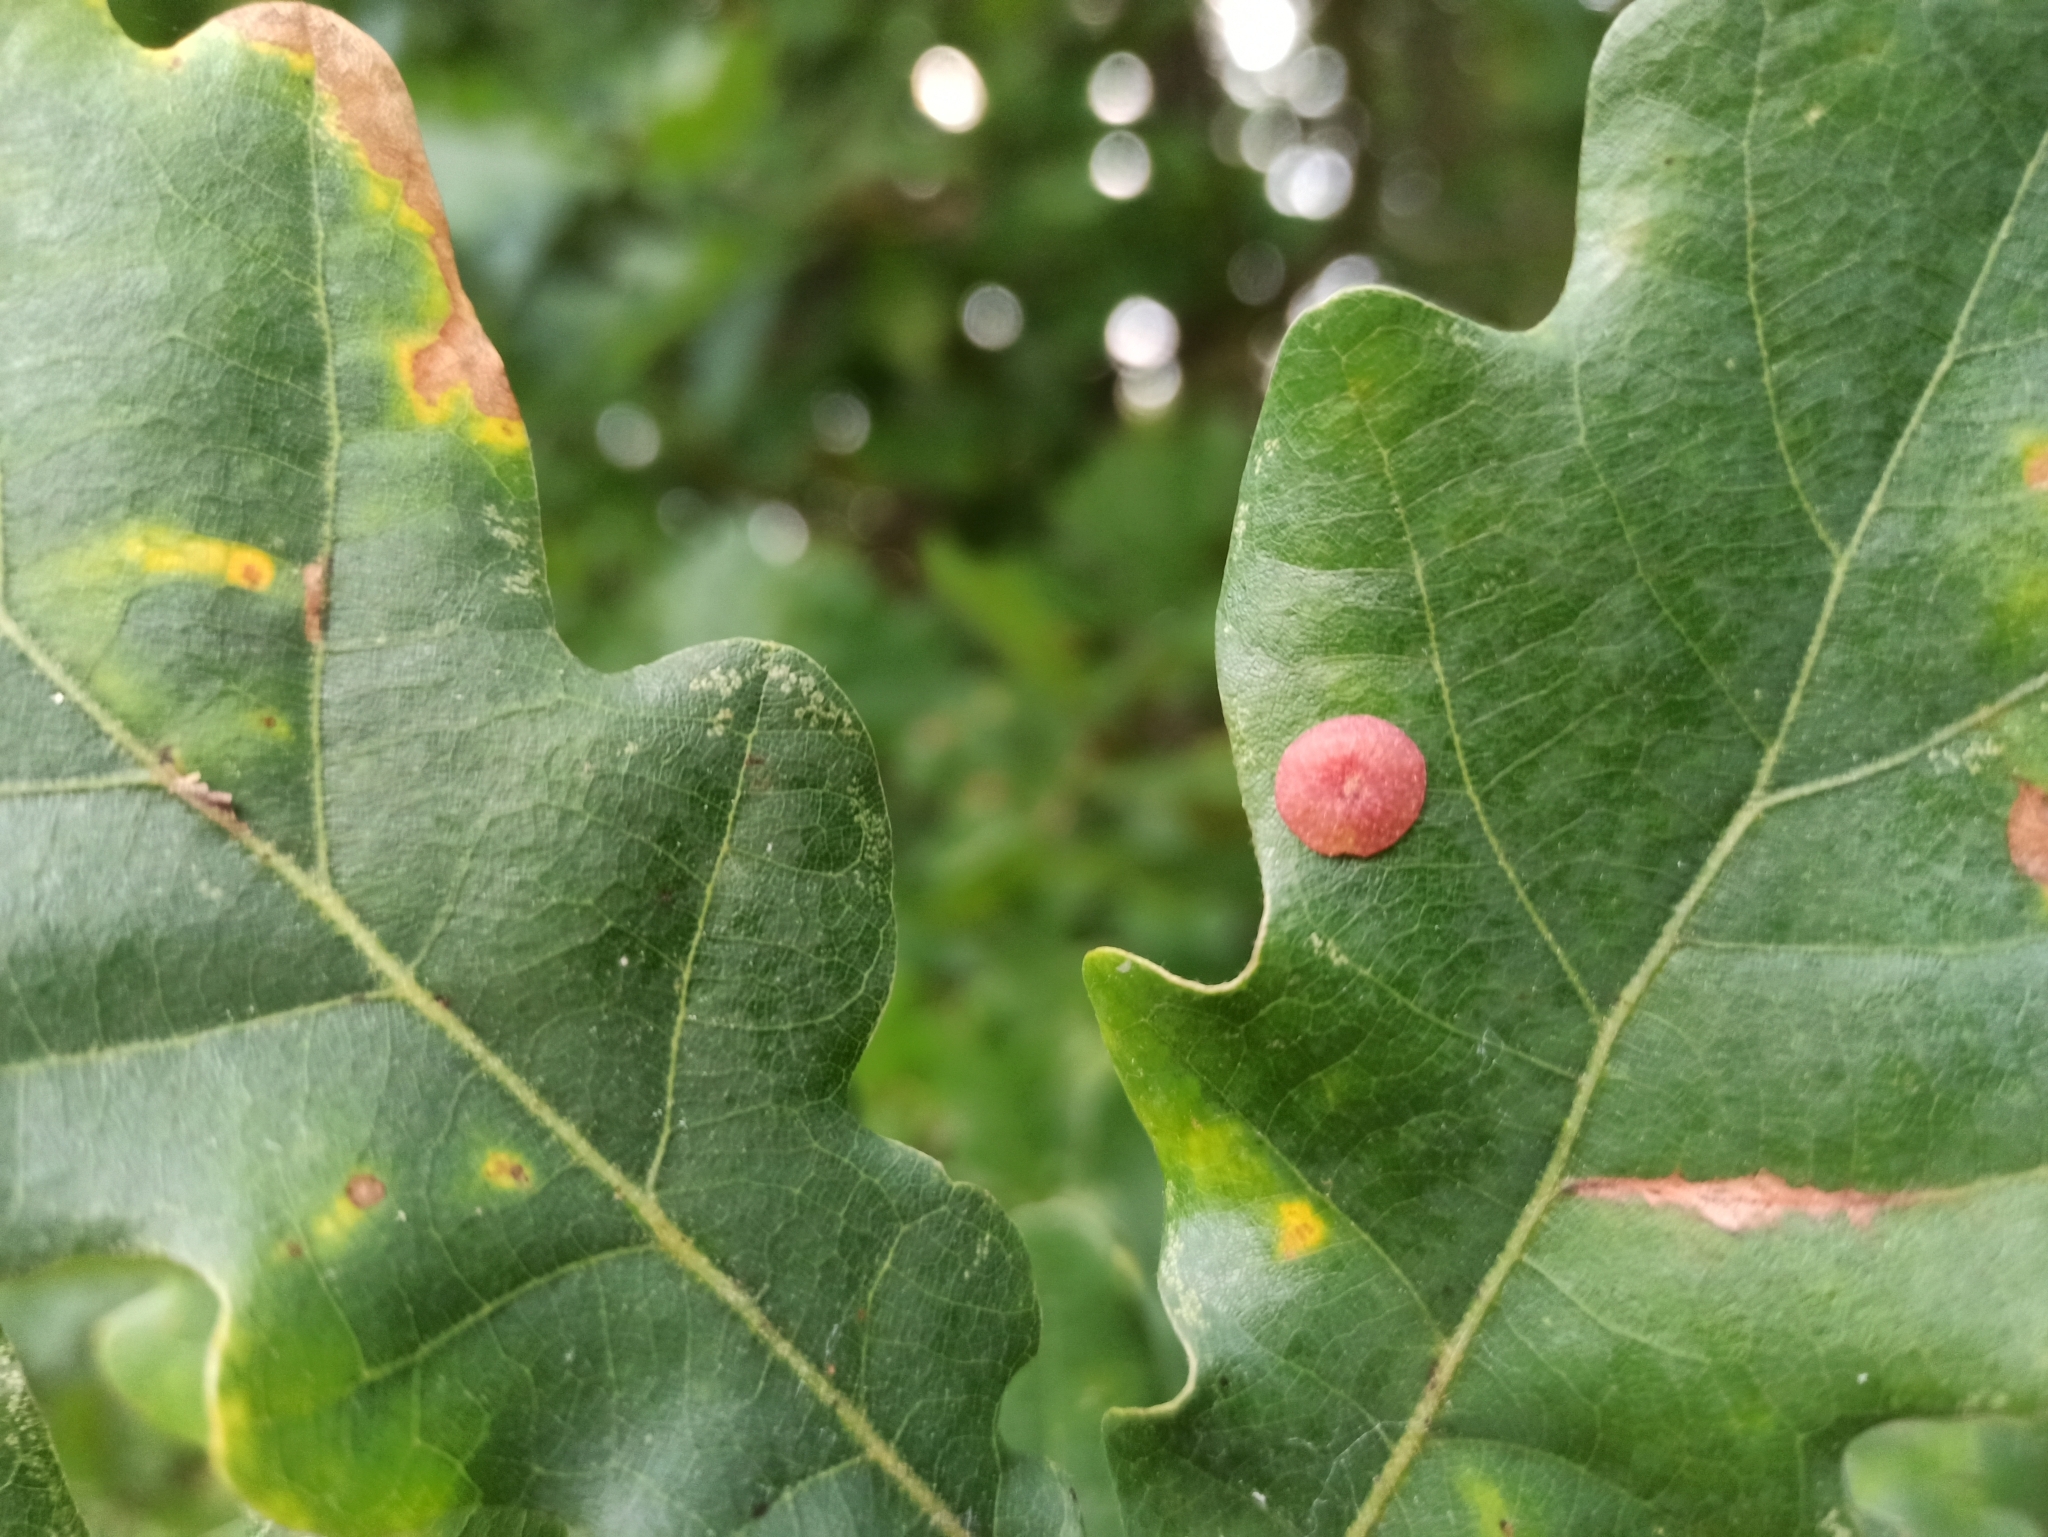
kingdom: Animalia
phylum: Arthropoda
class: Insecta
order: Hymenoptera
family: Cynipidae
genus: Neuroterus
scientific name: Neuroterus quercusbaccarum
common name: Common spangle gall
